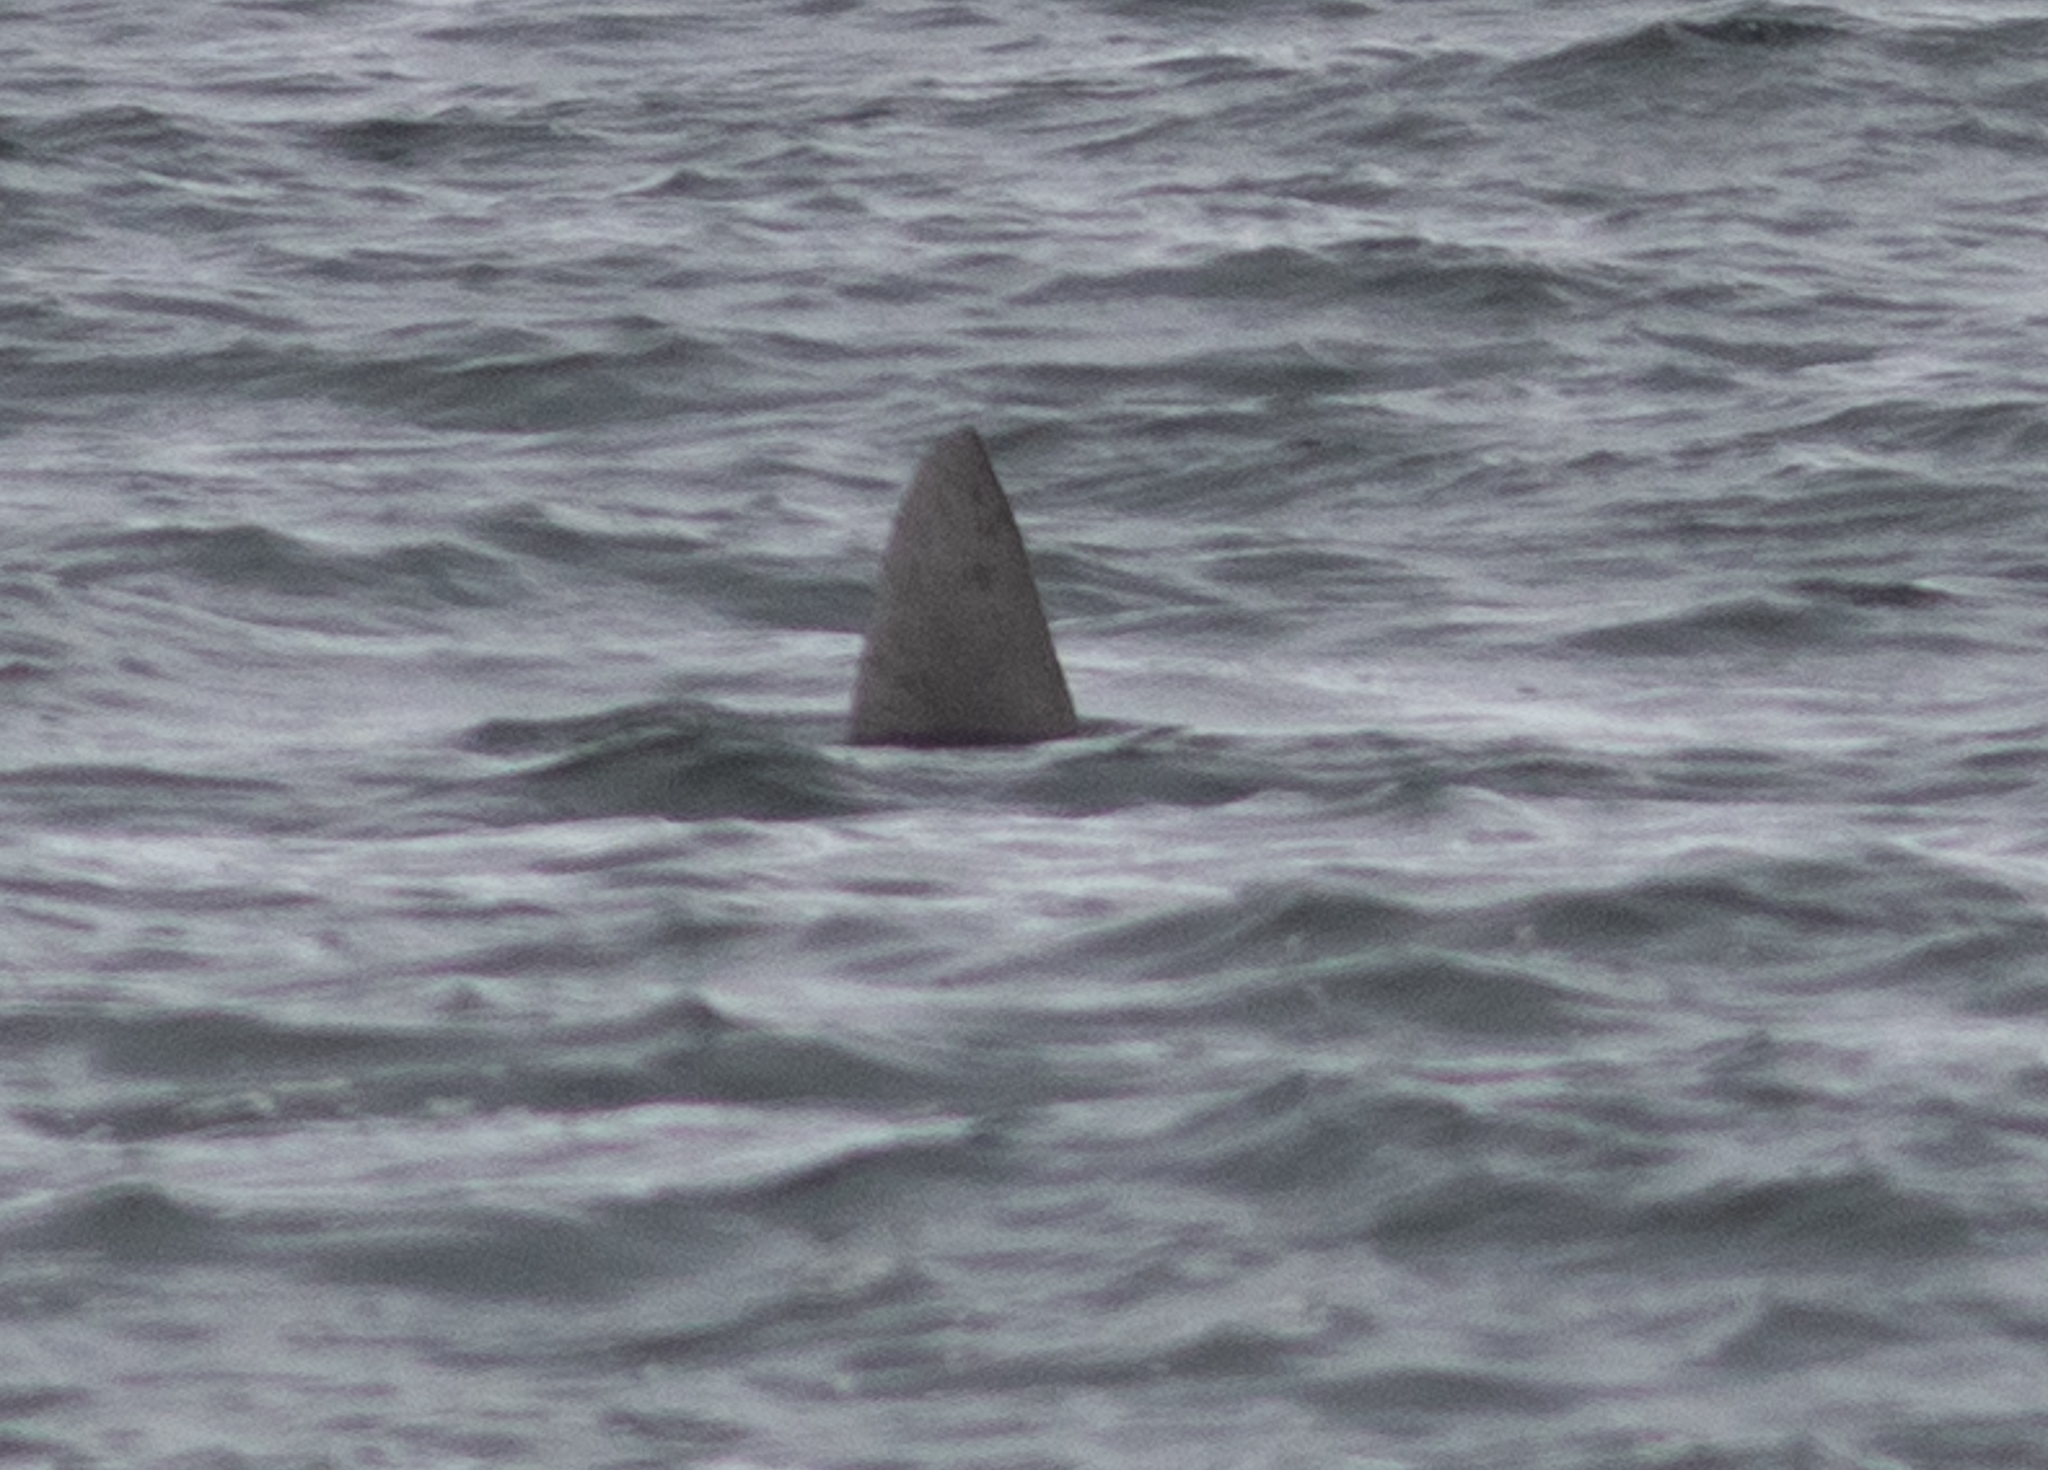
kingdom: Animalia
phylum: Chordata
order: Tetraodontiformes
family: Molidae
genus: Mola
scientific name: Mola mola
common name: Ocean sunfish
